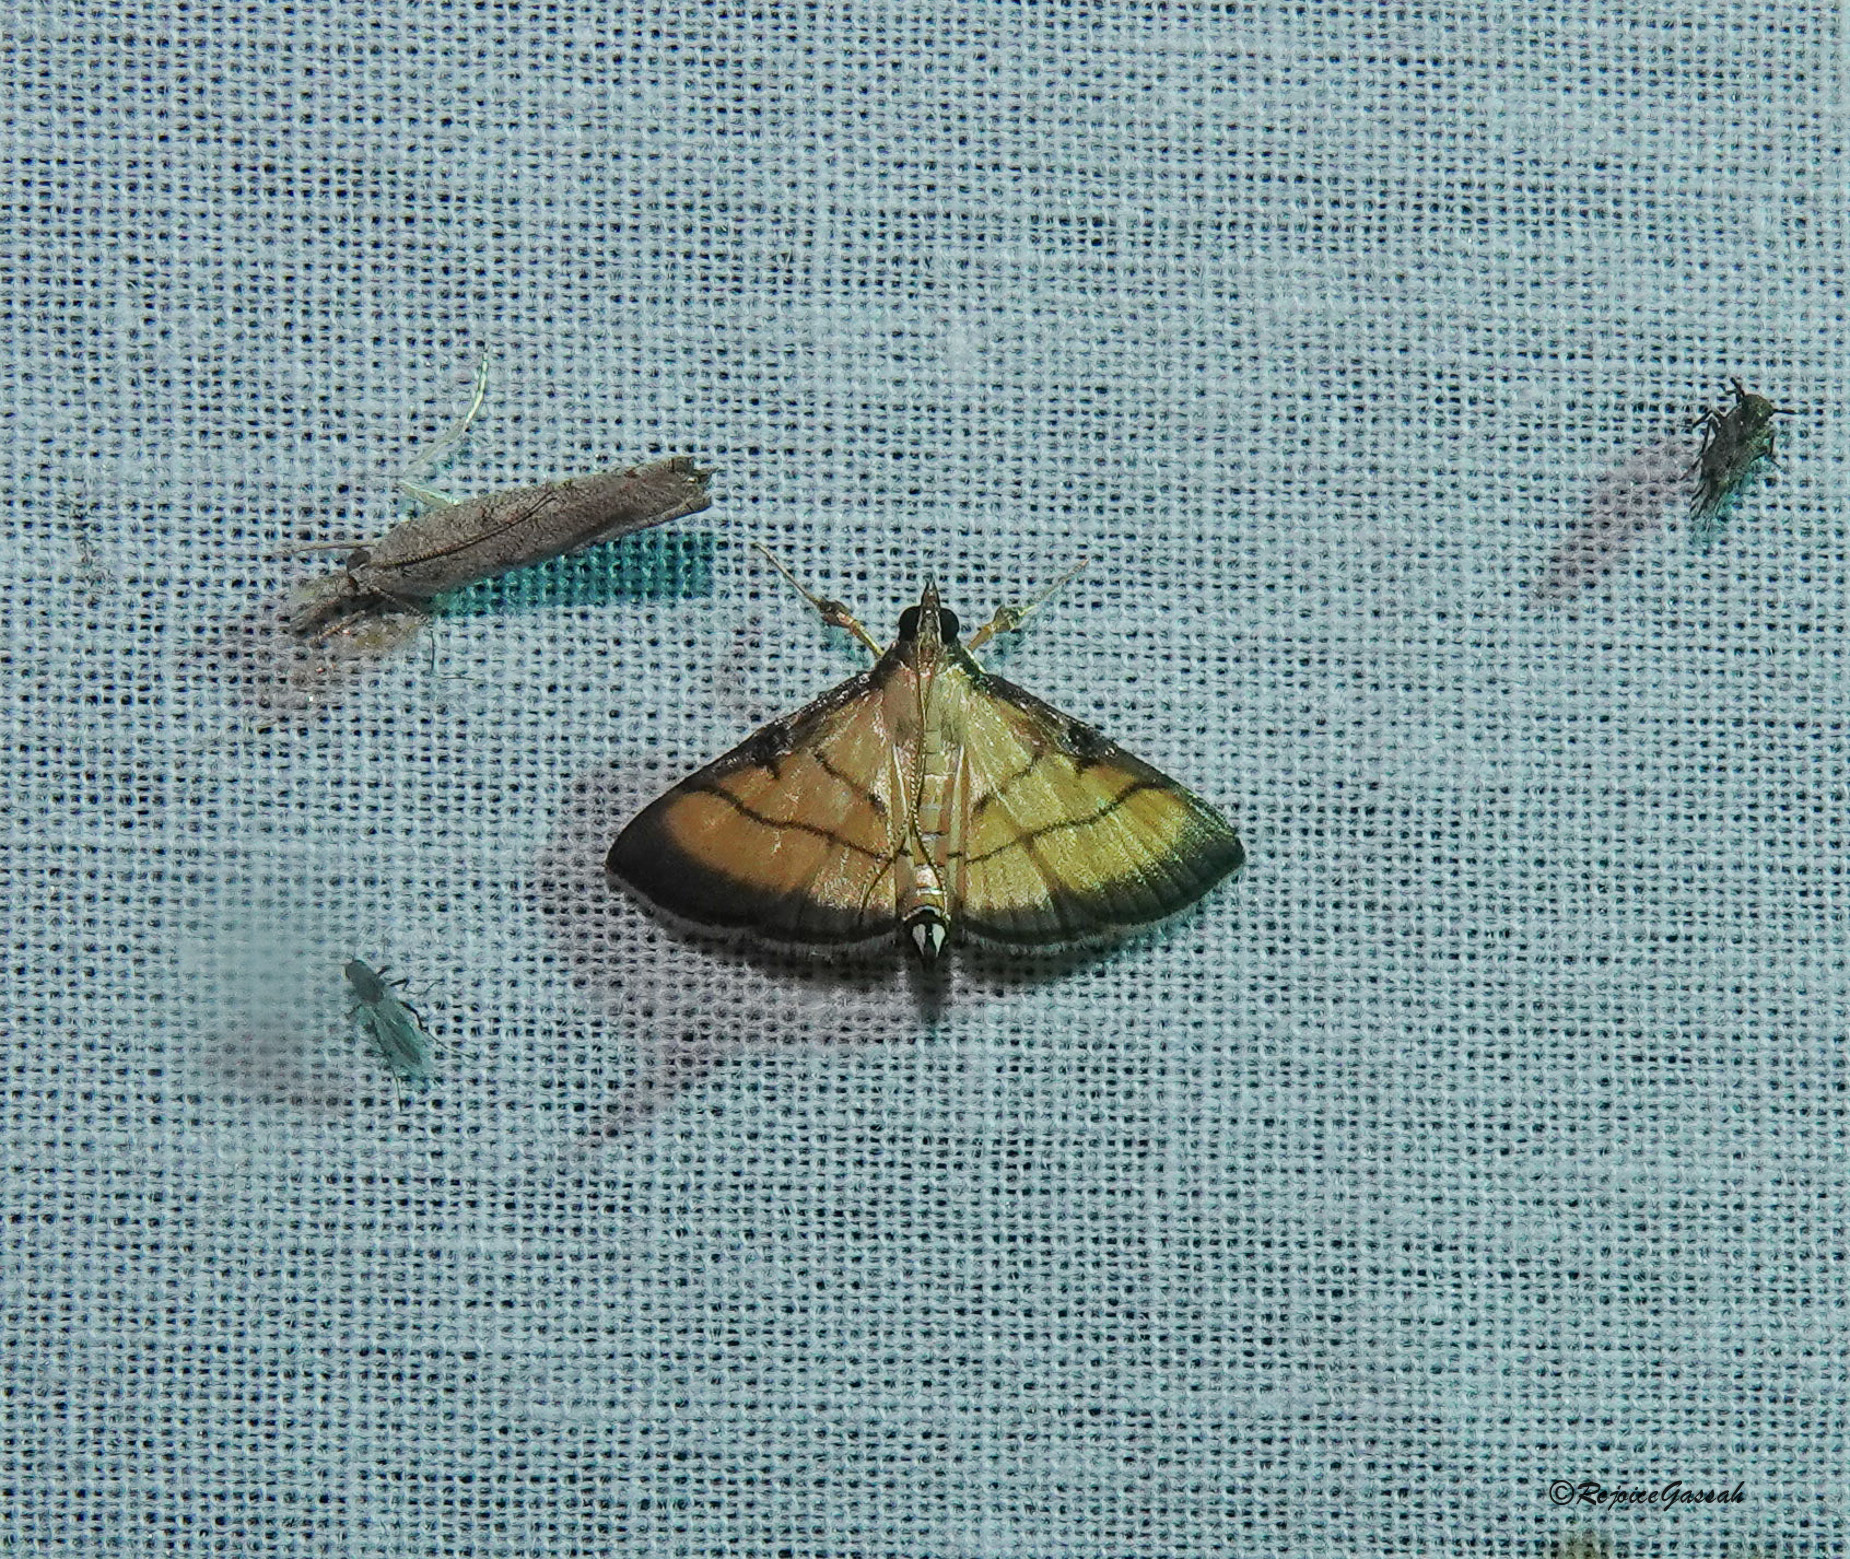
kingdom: Animalia
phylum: Arthropoda
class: Insecta
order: Lepidoptera
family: Crambidae
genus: Cnaphalocrocis
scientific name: Cnaphalocrocis medinalis
